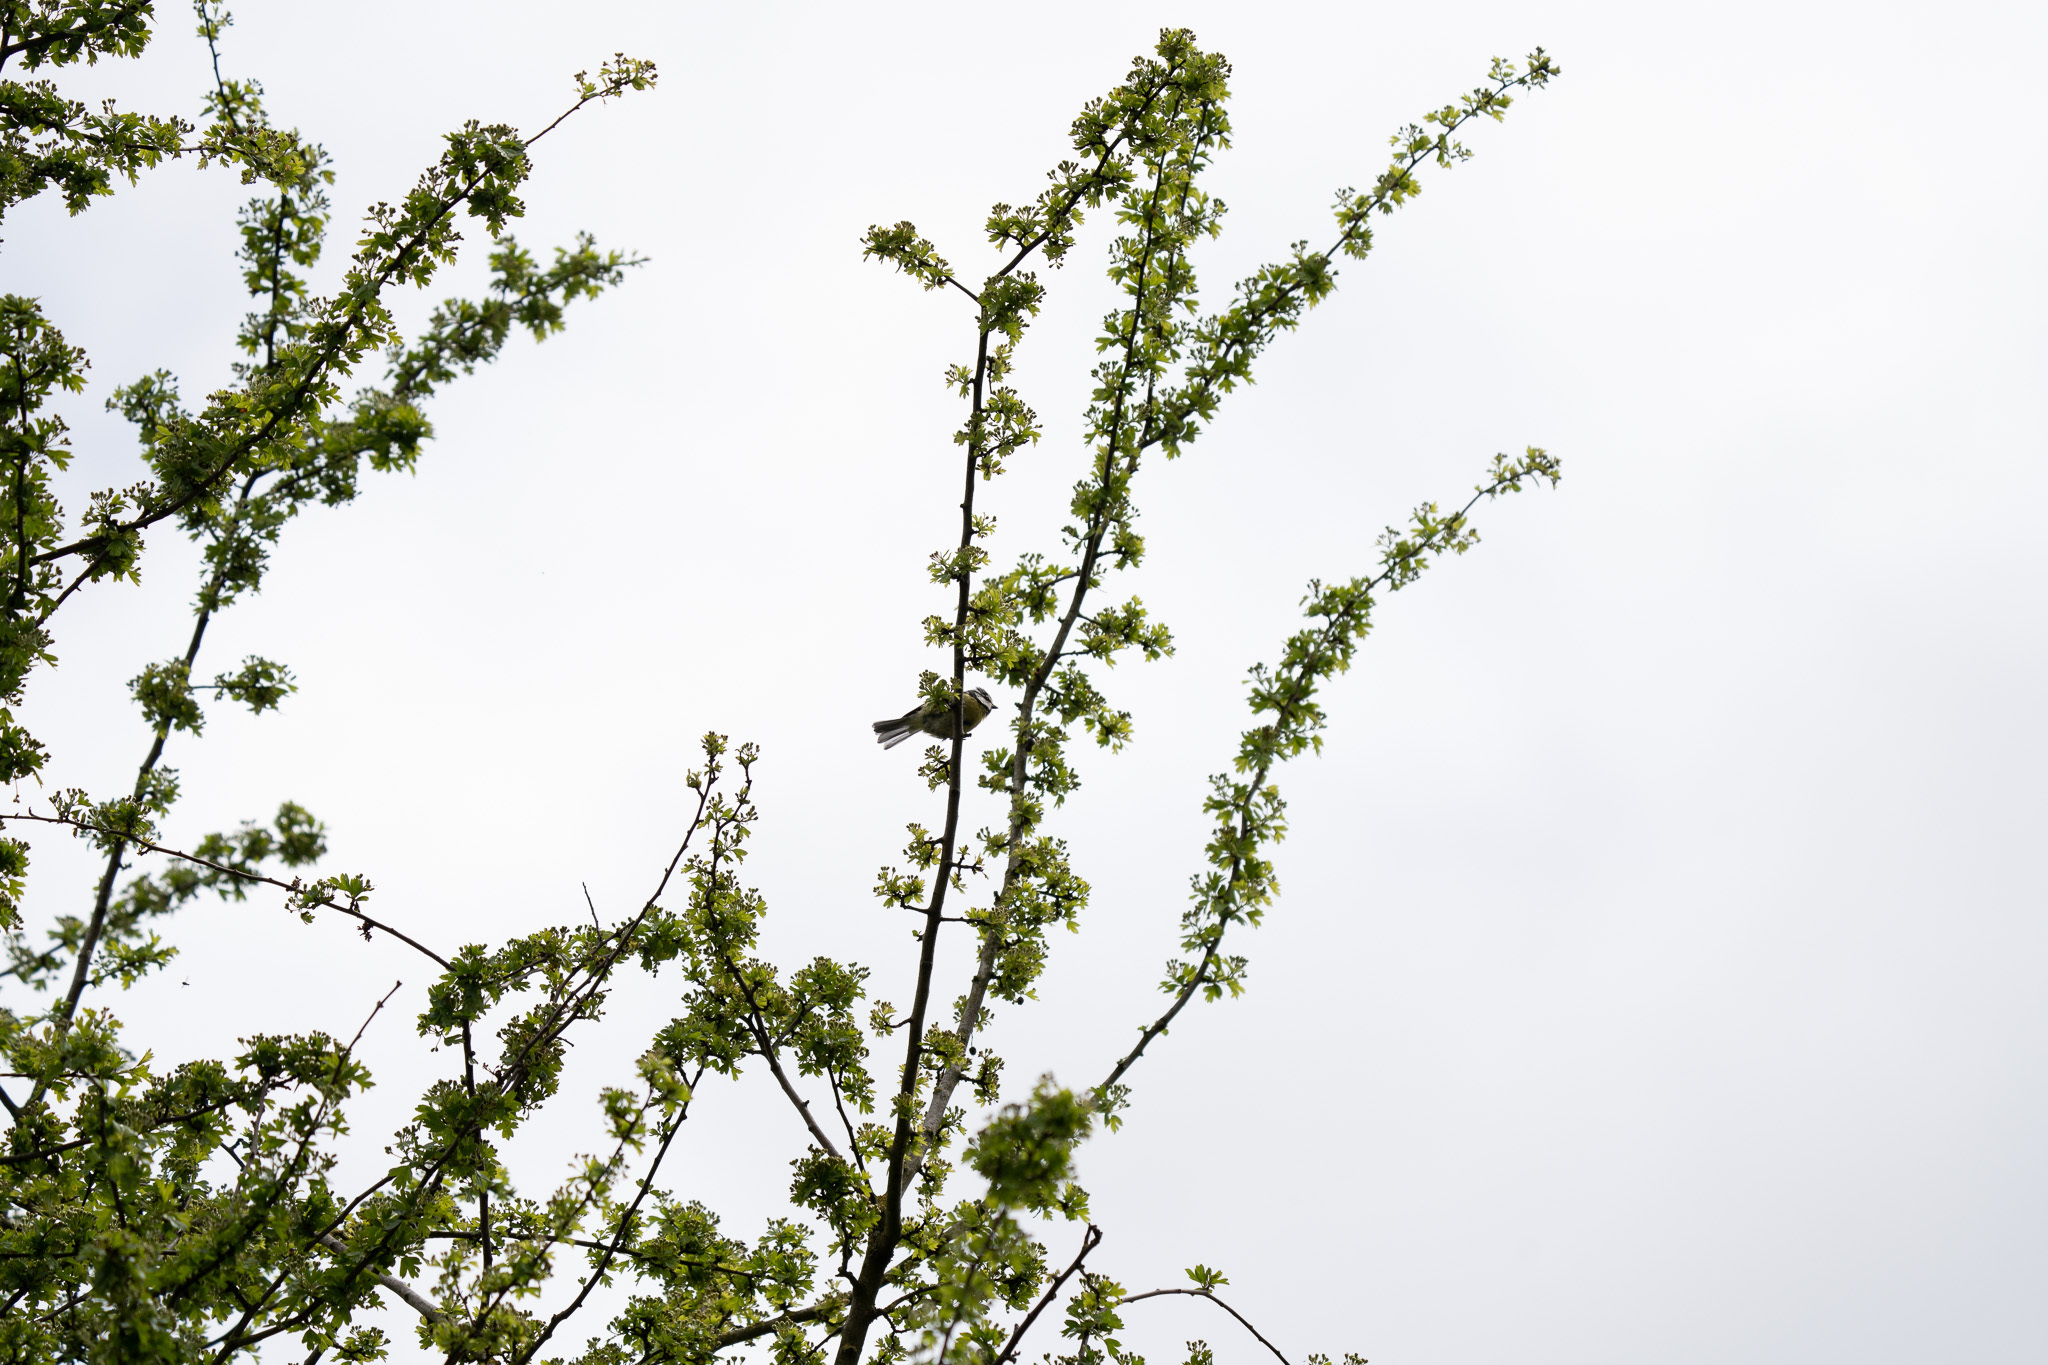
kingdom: Animalia
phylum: Chordata
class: Aves
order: Passeriformes
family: Paridae
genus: Cyanistes
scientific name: Cyanistes caeruleus
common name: Eurasian blue tit
